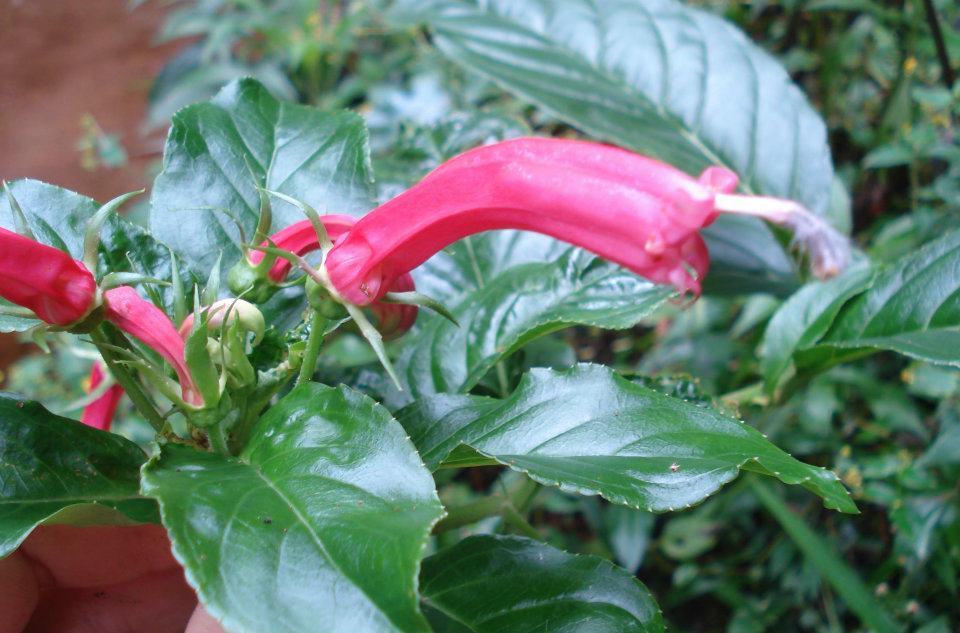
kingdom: Plantae
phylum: Tracheophyta
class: Magnoliopsida
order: Asterales
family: Campanulaceae
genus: Centropogon
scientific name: Centropogon cornutus
